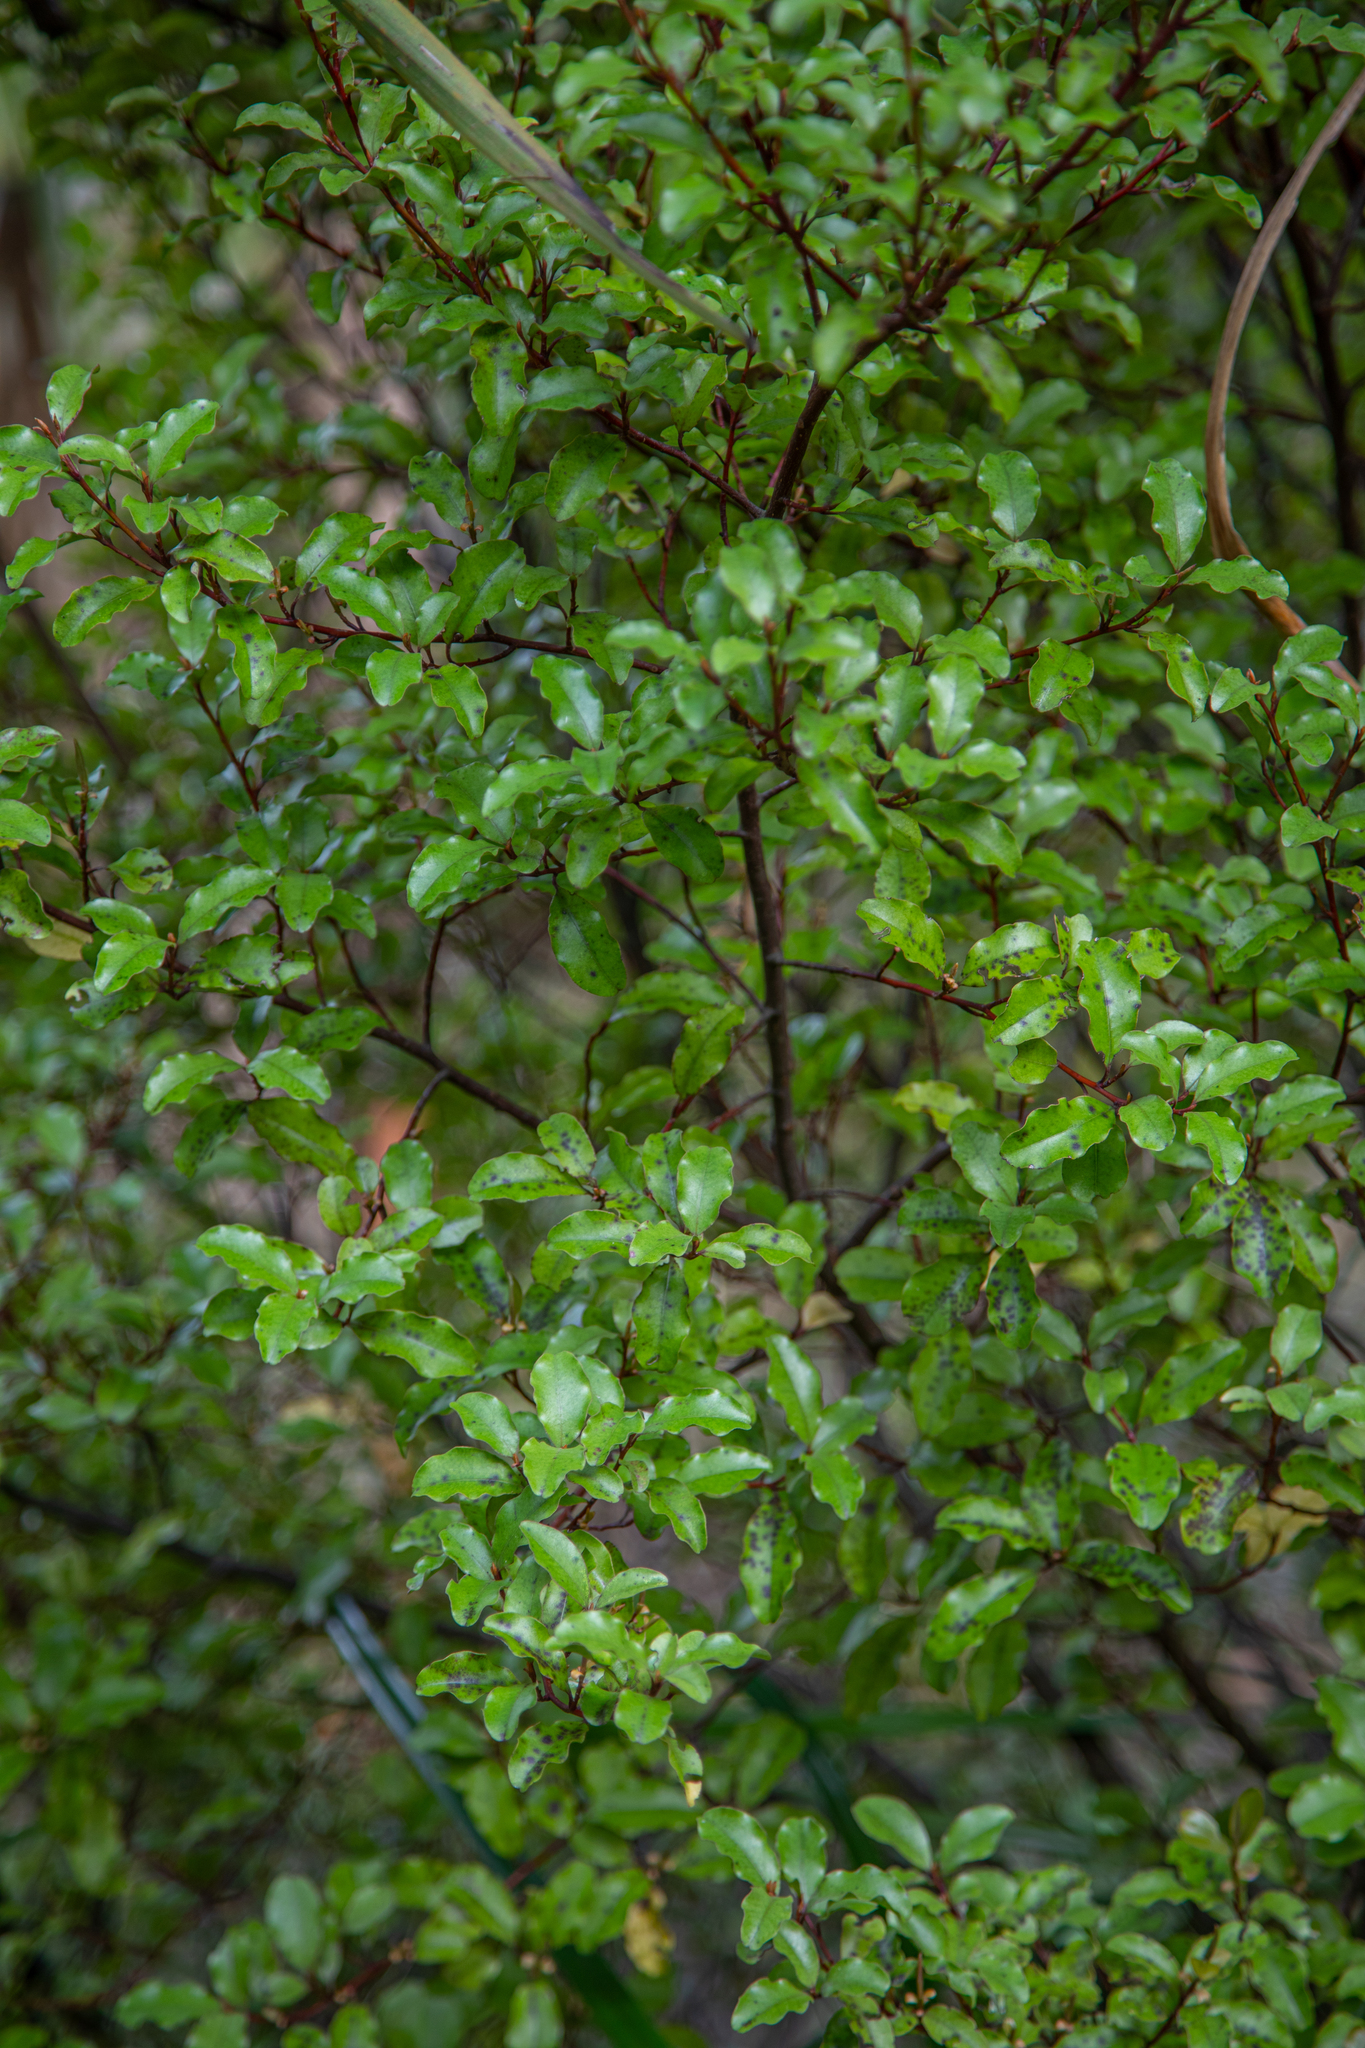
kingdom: Plantae
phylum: Tracheophyta
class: Magnoliopsida
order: Ericales
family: Primulaceae
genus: Myrsine
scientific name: Myrsine australis
